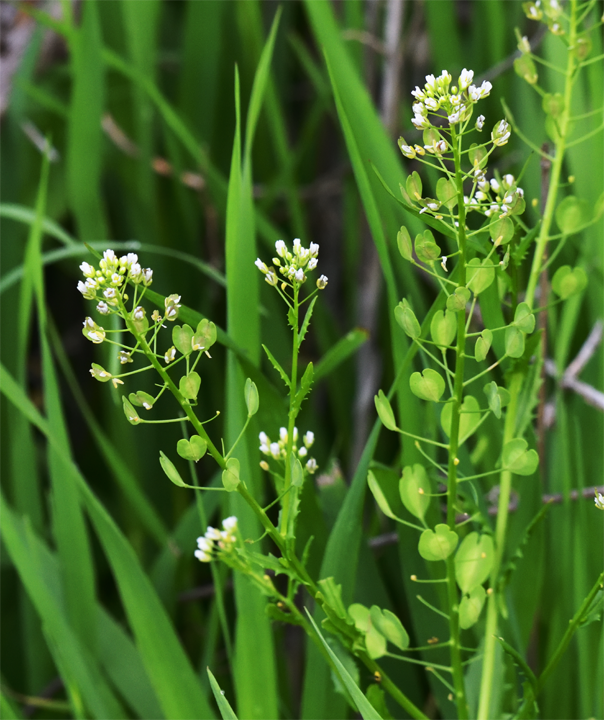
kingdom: Plantae
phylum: Tracheophyta
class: Magnoliopsida
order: Brassicales
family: Brassicaceae
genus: Thlaspi
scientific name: Thlaspi arvense
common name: Field pennycress
